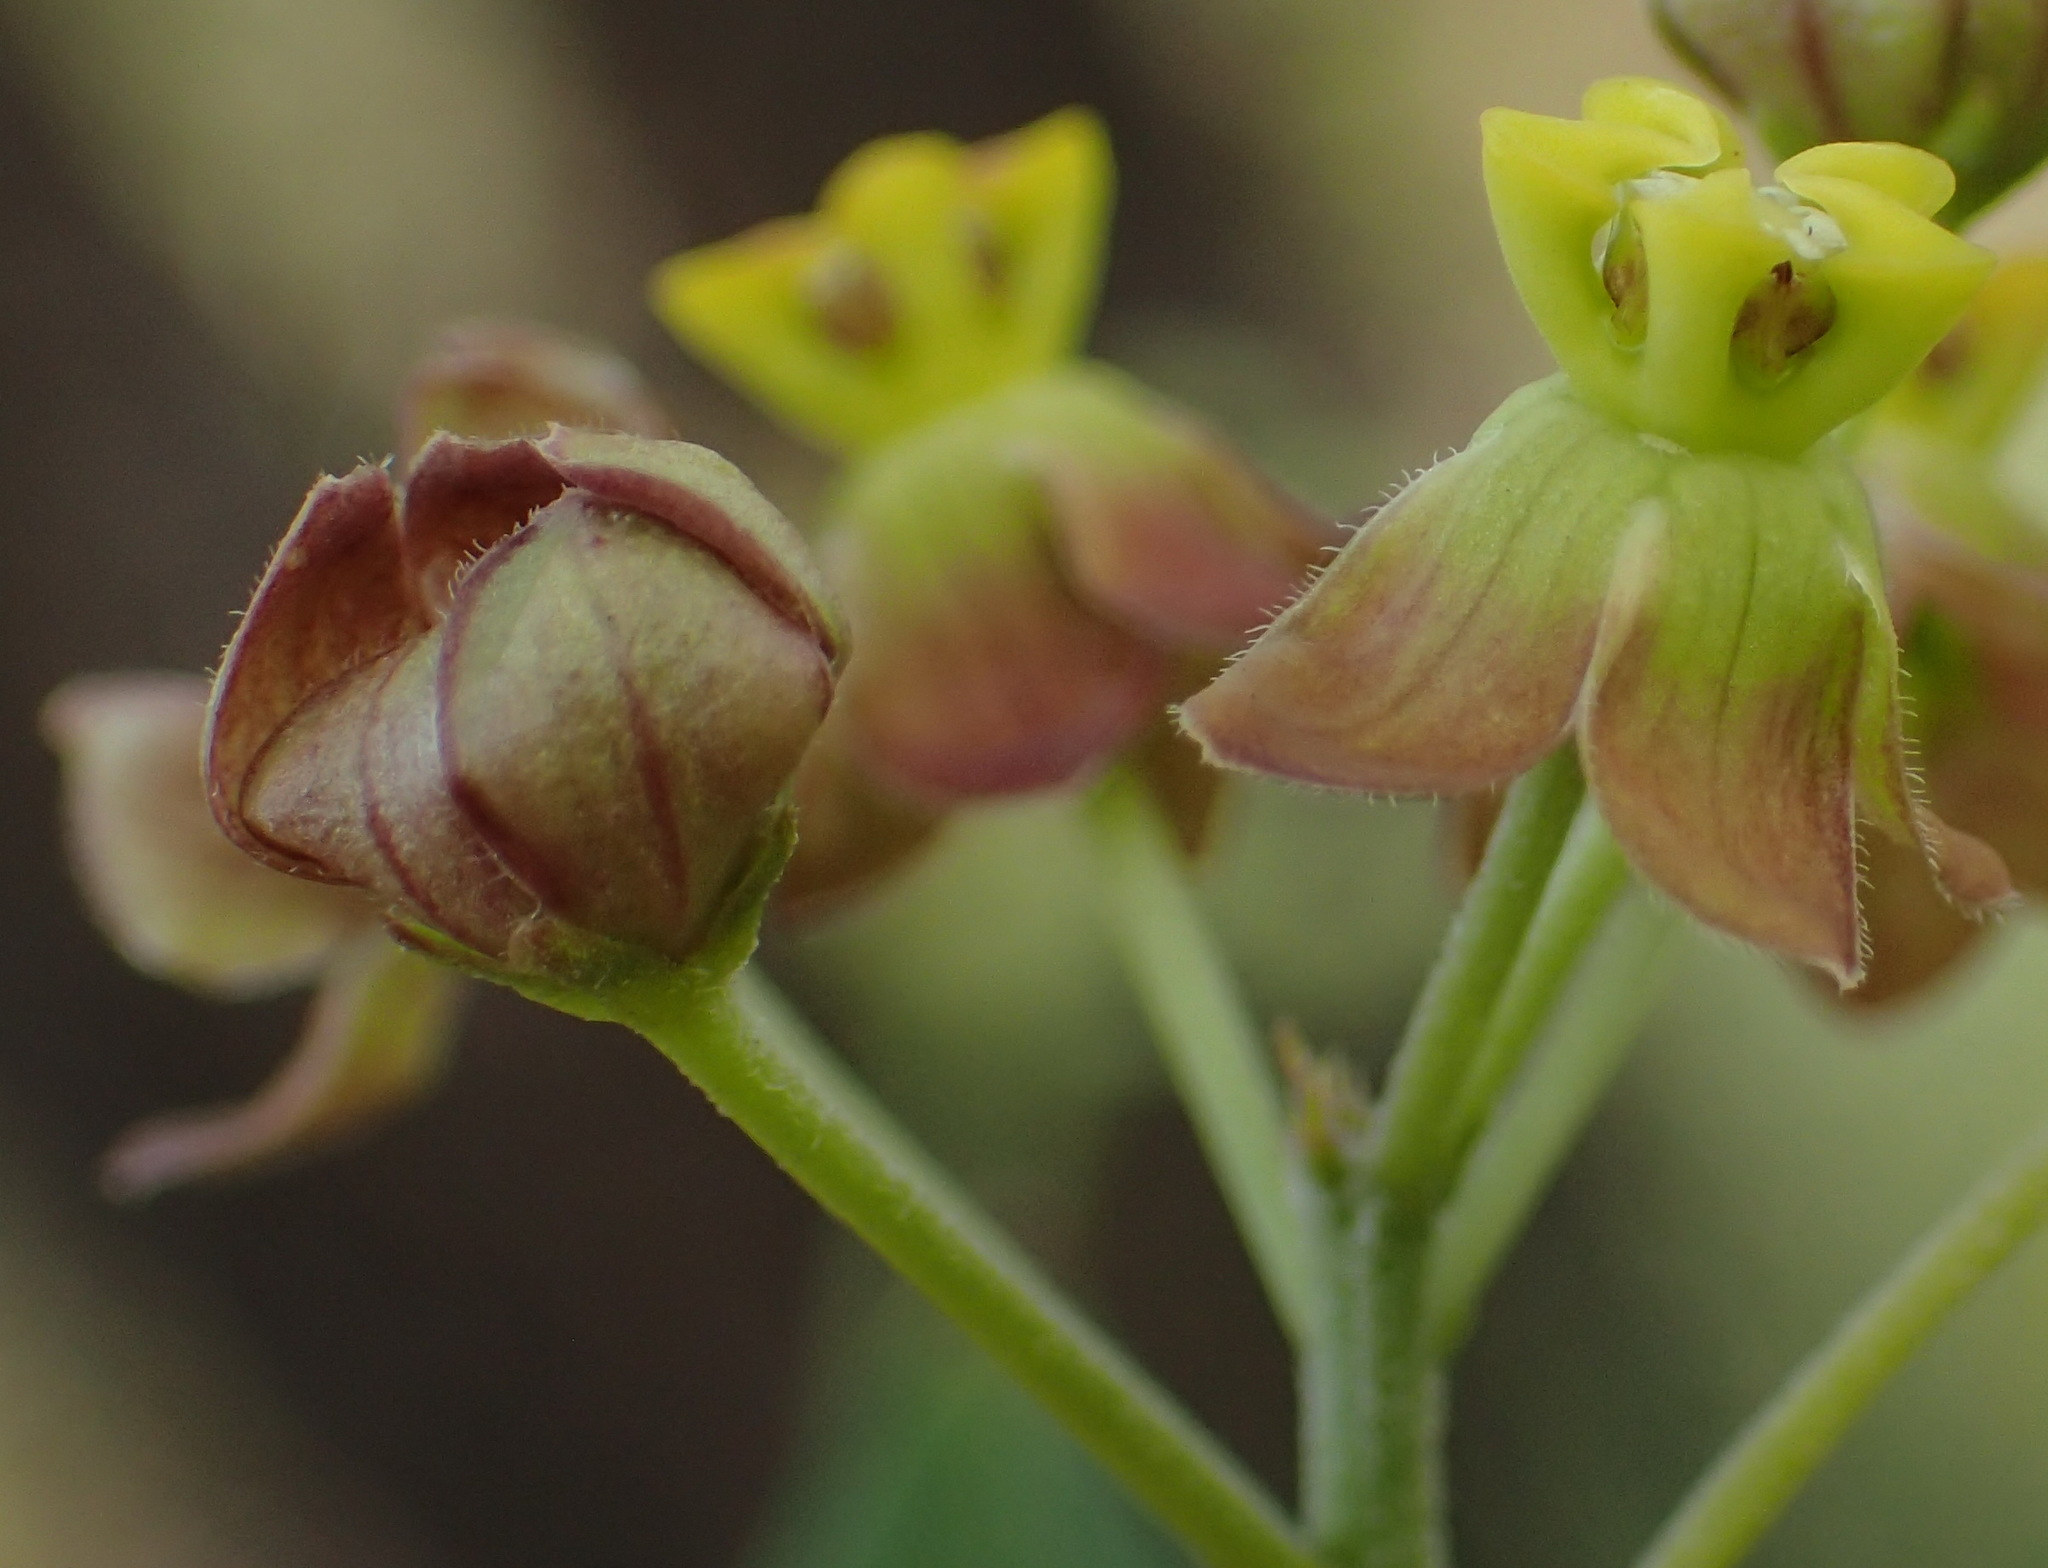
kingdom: Plantae
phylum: Tracheophyta
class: Magnoliopsida
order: Gentianales
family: Apocynaceae
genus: Cynanchum
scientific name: Cynanchum
